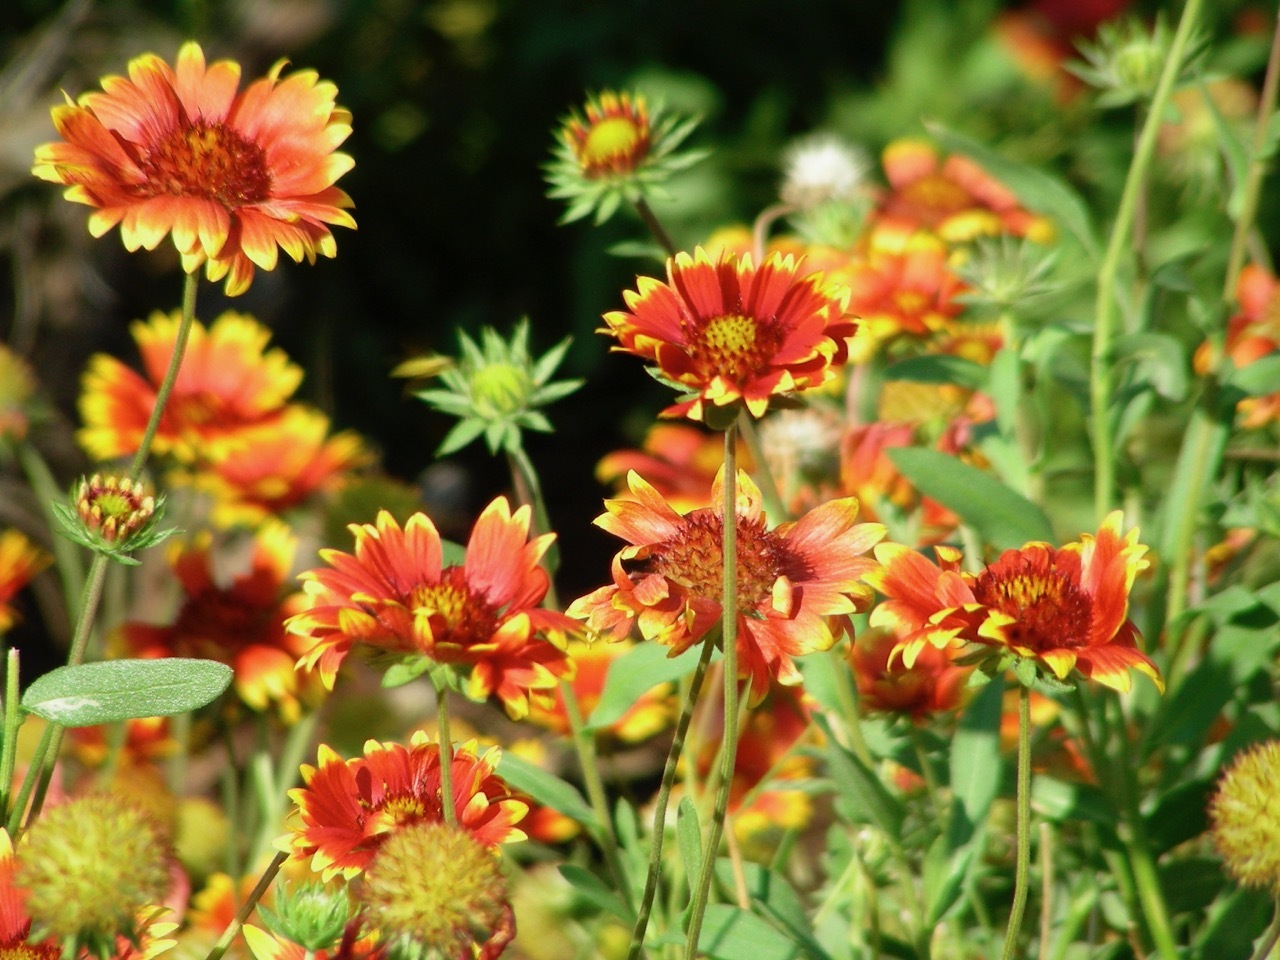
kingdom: Plantae
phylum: Tracheophyta
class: Magnoliopsida
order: Asterales
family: Asteraceae
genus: Gaillardia
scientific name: Gaillardia pulchella
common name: Firewheel
